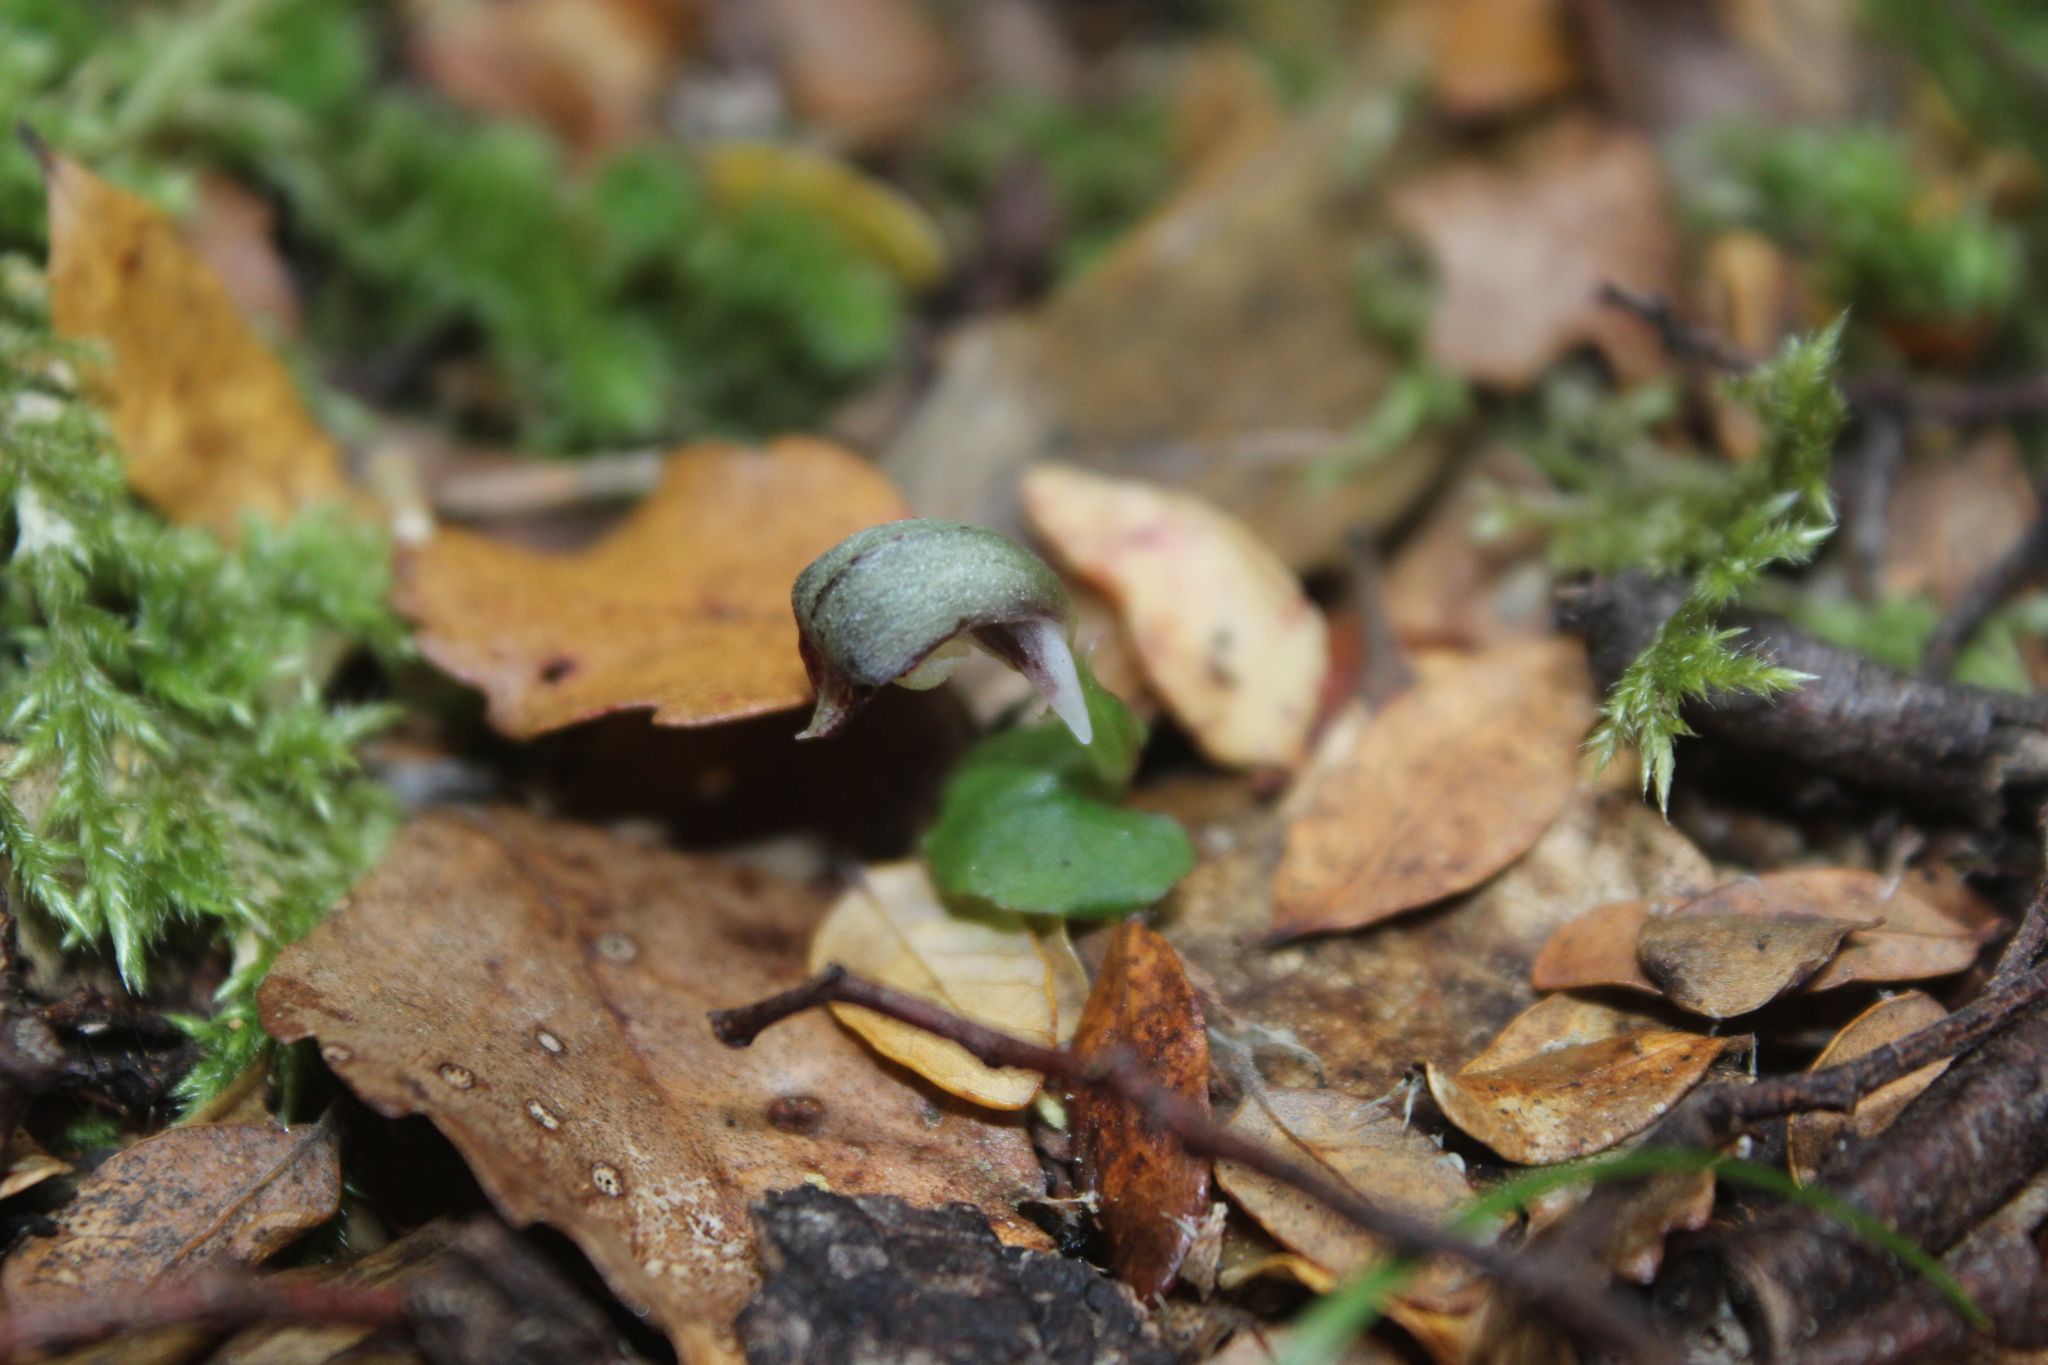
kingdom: Plantae
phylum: Tracheophyta
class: Liliopsida
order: Asparagales
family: Orchidaceae
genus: Corybas
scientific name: Corybas cheesemanii
